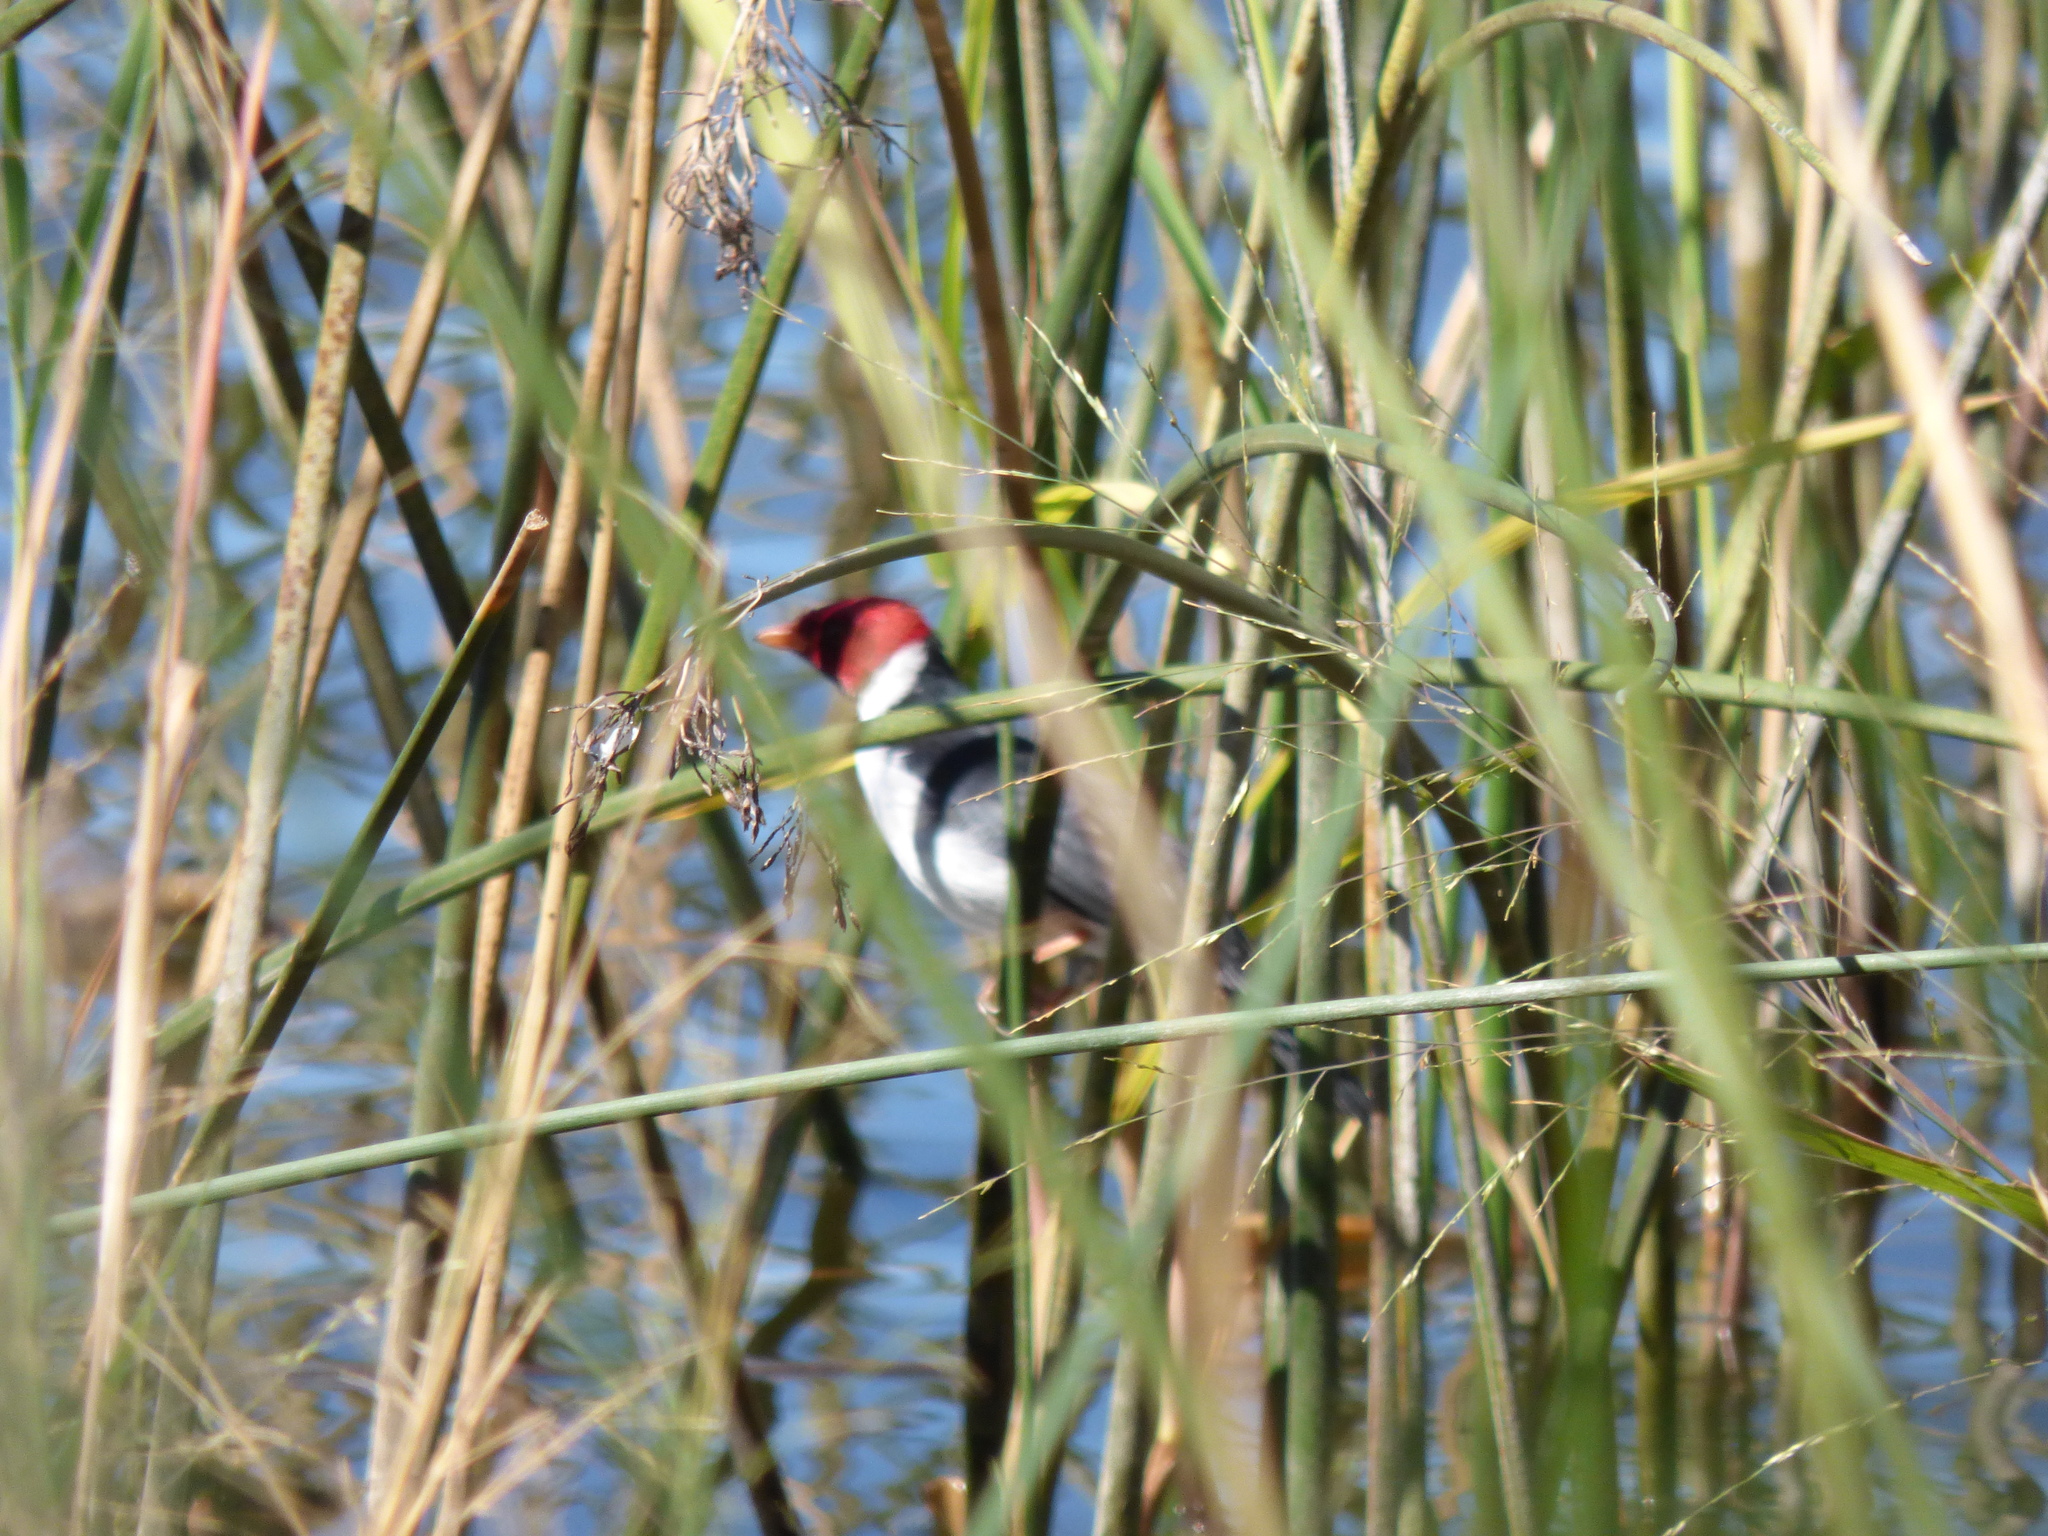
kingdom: Animalia
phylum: Chordata
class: Aves
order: Passeriformes
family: Thraupidae
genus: Paroaria
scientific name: Paroaria capitata
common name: Yellow-billed cardinal
